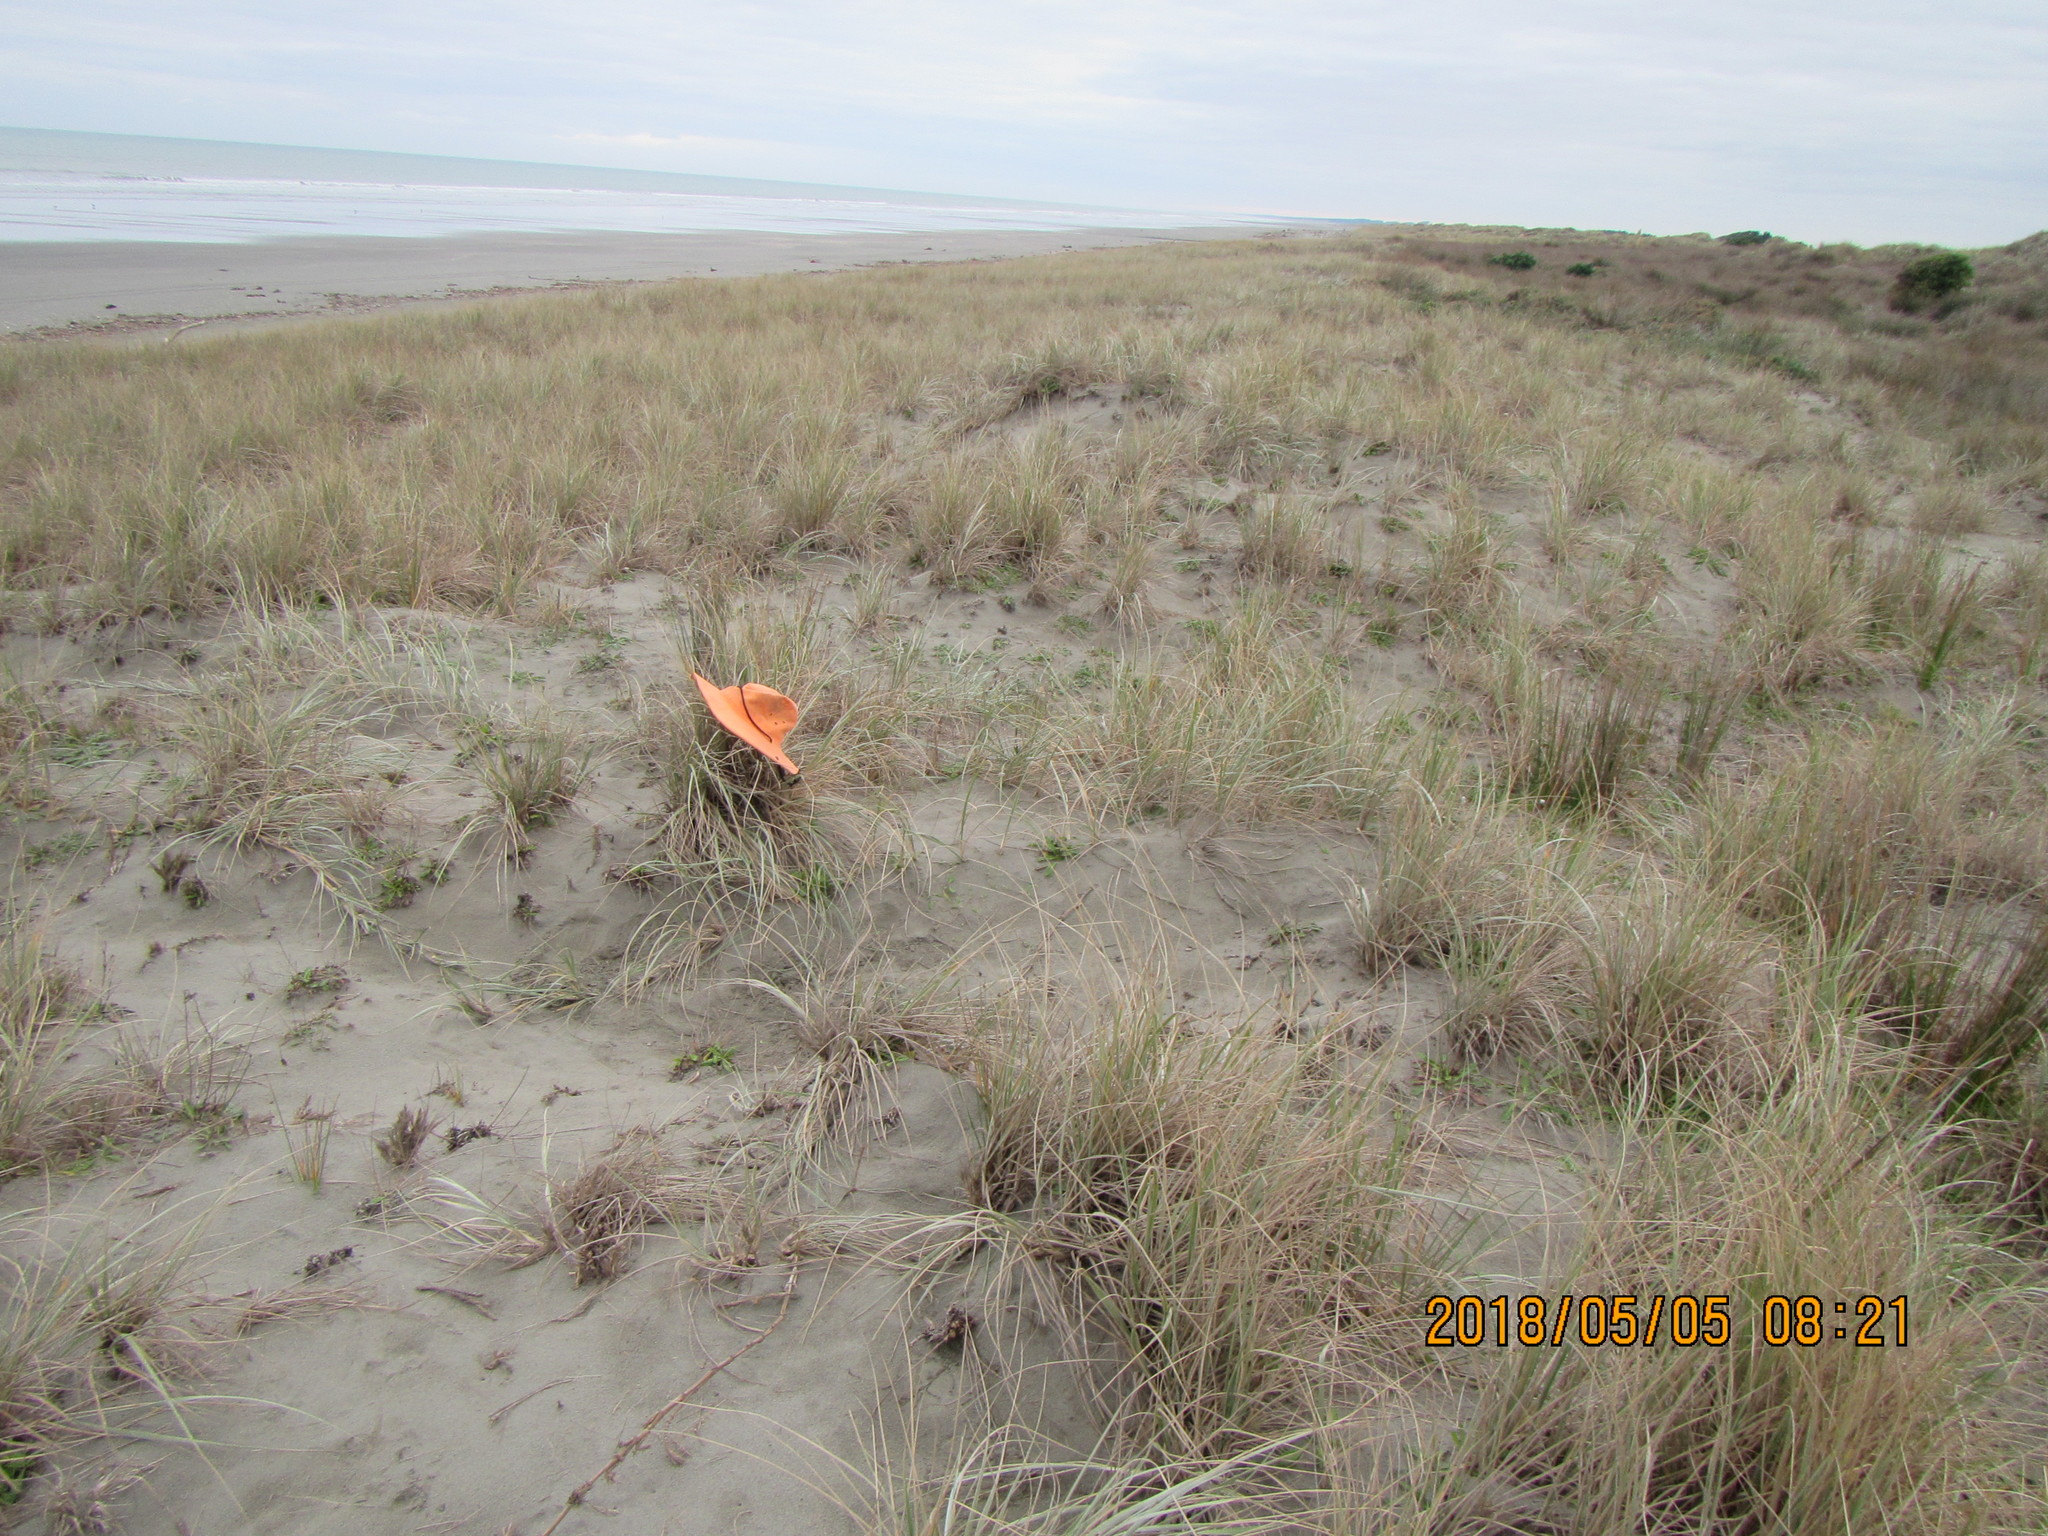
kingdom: Animalia
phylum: Mollusca
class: Gastropoda
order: Stylommatophora
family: Geomitridae
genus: Xeroplexa
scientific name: Xeroplexa intersecta
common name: Wrinkled snail
